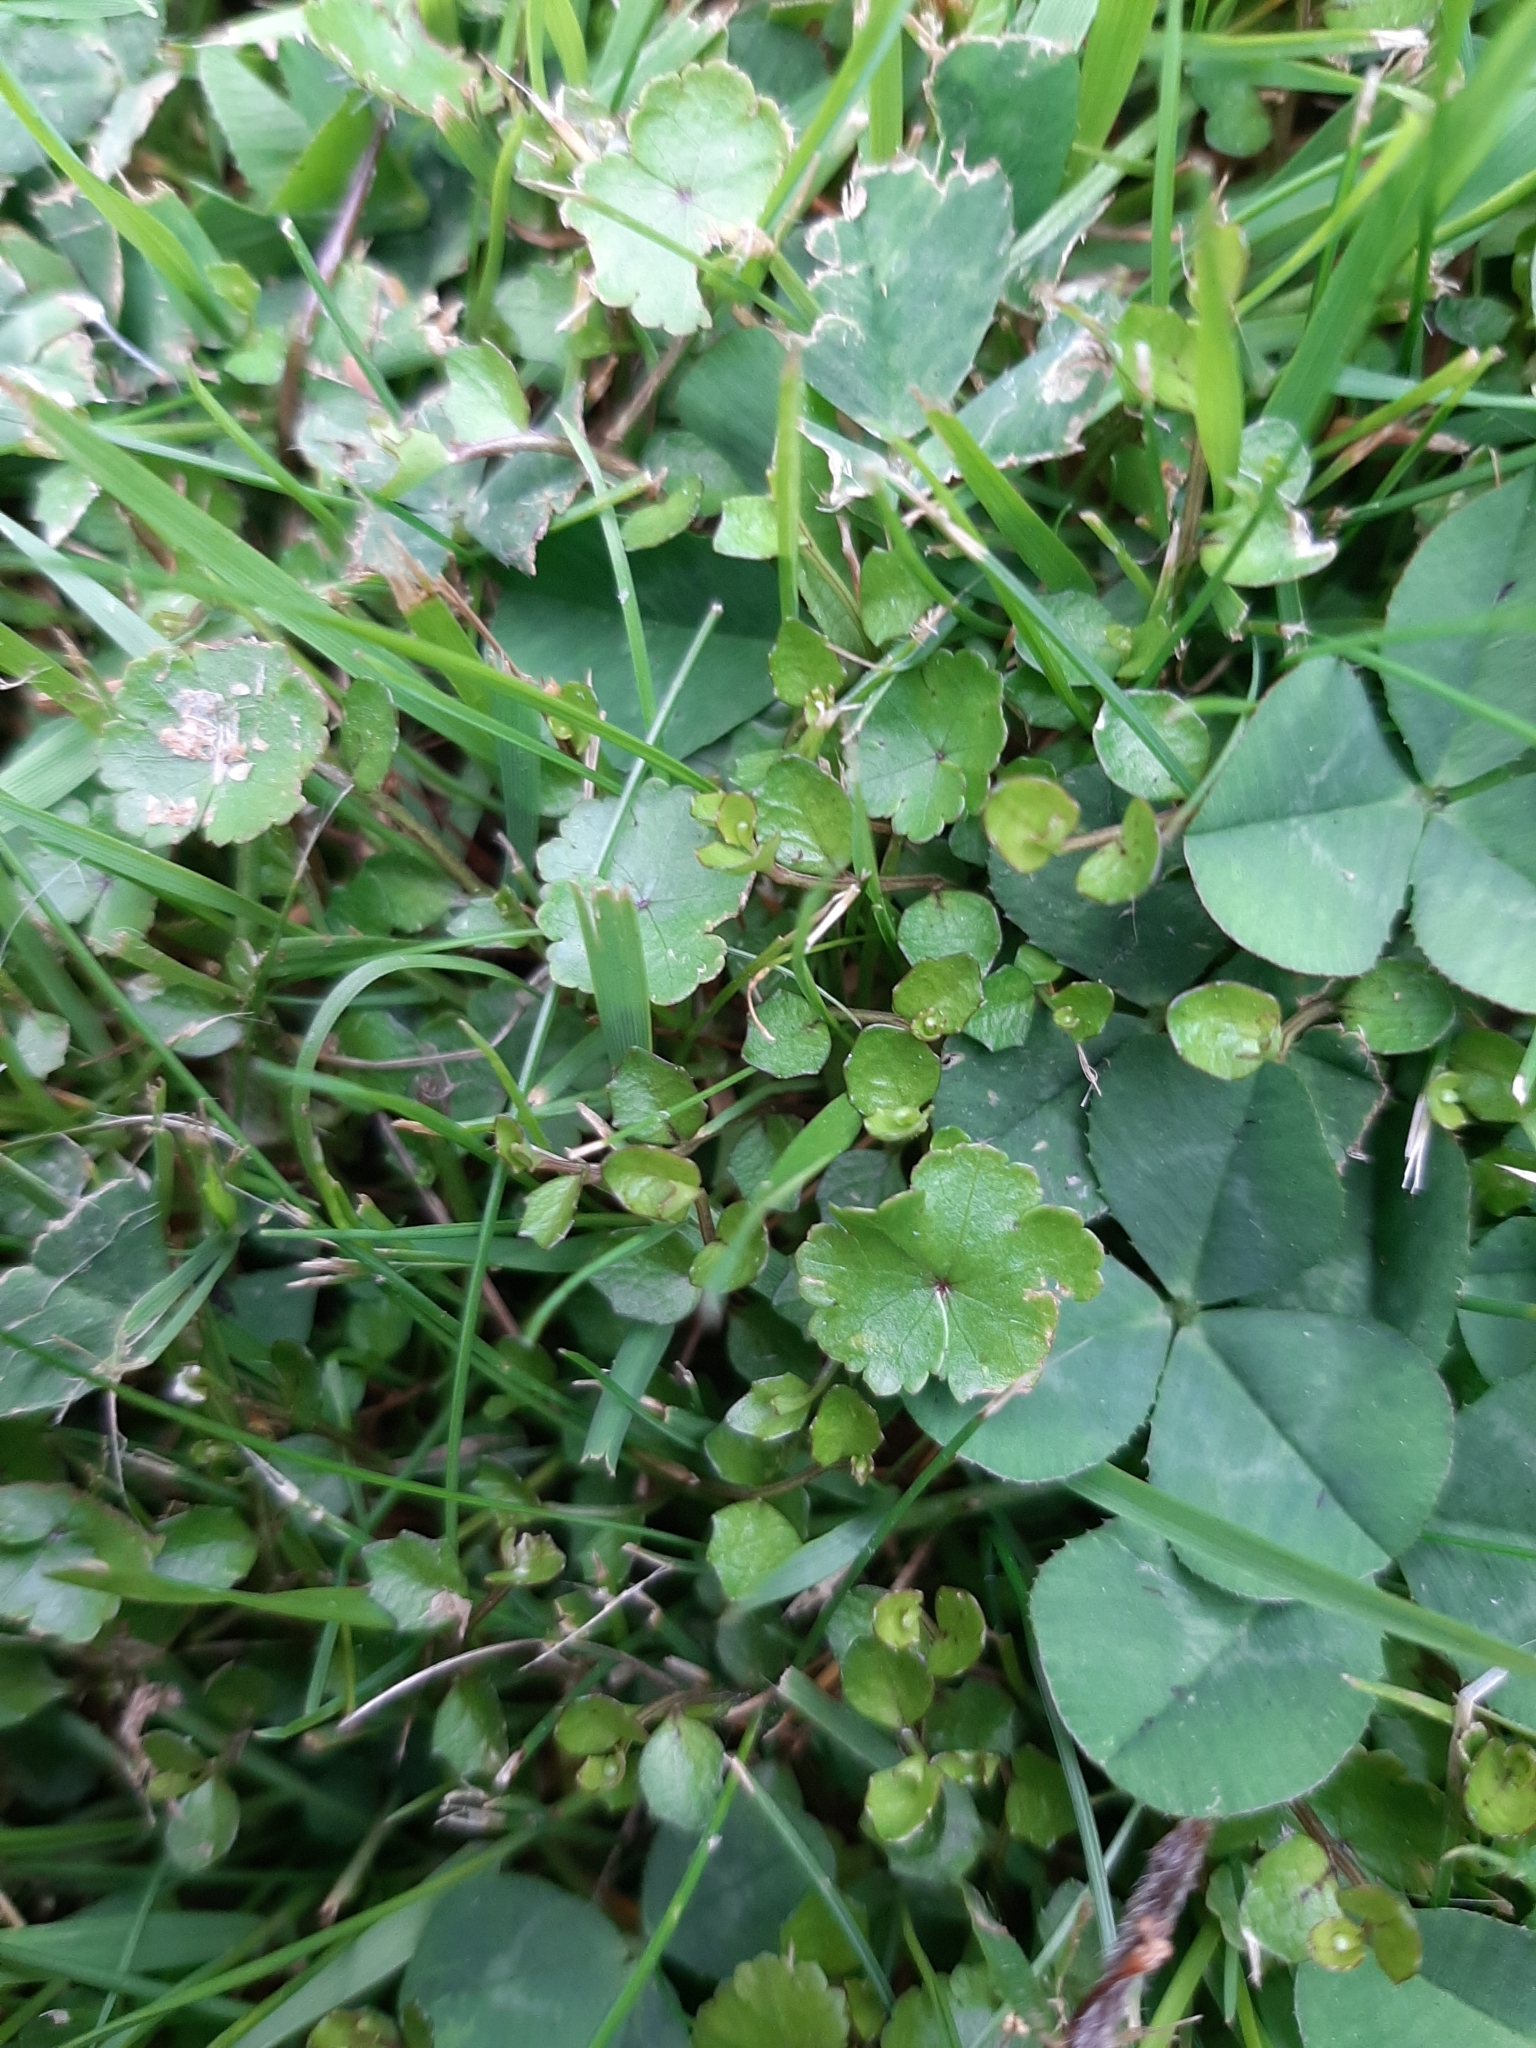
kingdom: Plantae
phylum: Tracheophyta
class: Magnoliopsida
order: Asterales
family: Campanulaceae
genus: Lobelia
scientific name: Lobelia angulata
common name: Lawn lobelia
